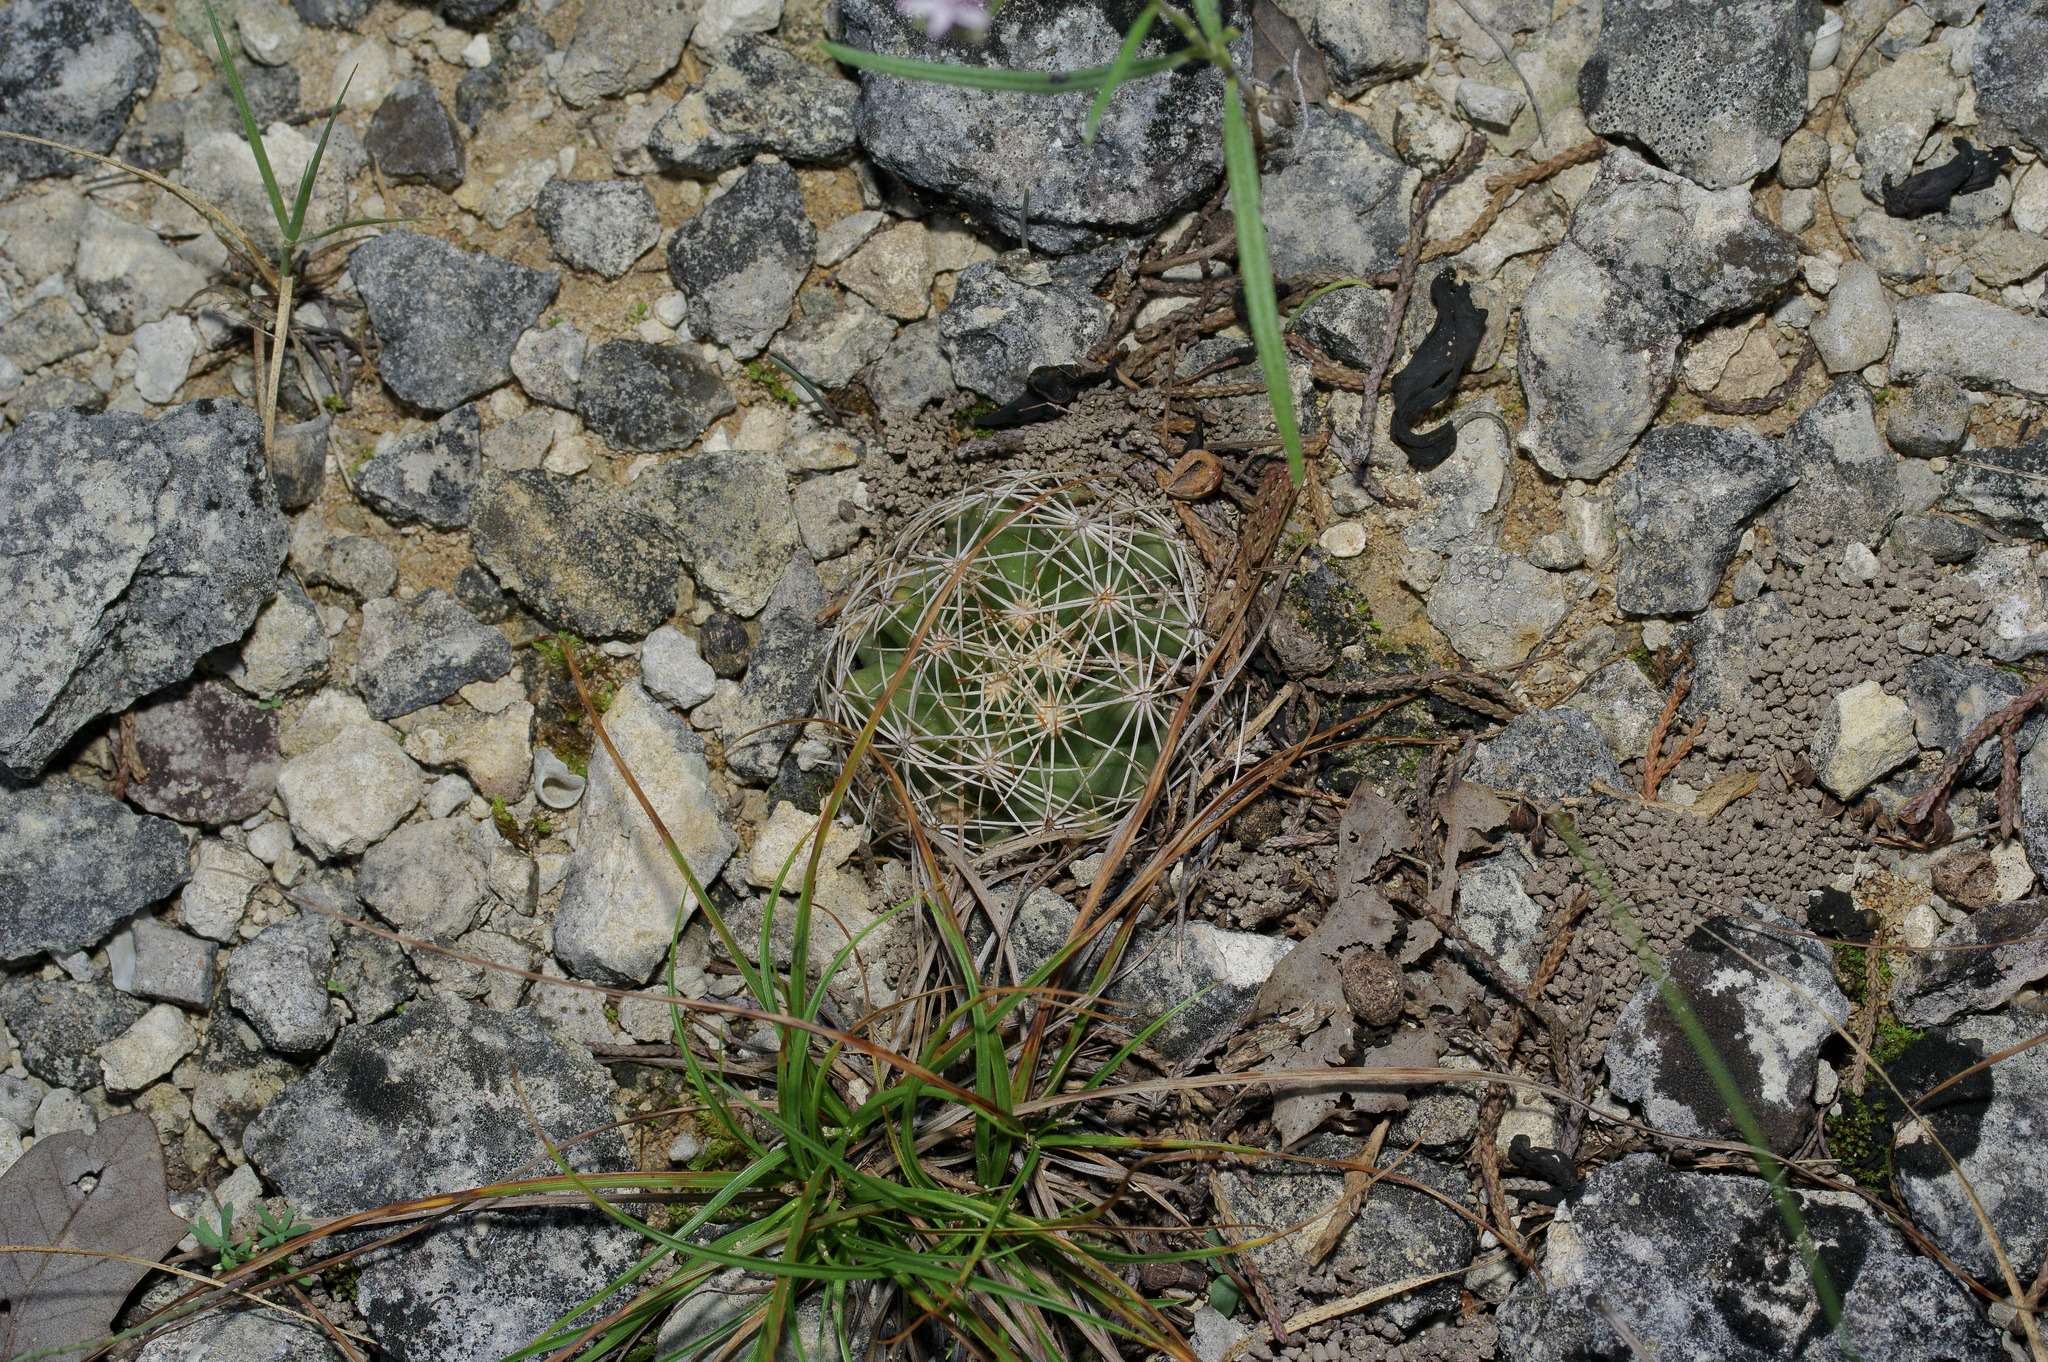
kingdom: Plantae
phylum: Tracheophyta
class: Magnoliopsida
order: Caryophyllales
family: Cactaceae
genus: Coryphantha
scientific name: Coryphantha sulcata
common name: Finger cactus
